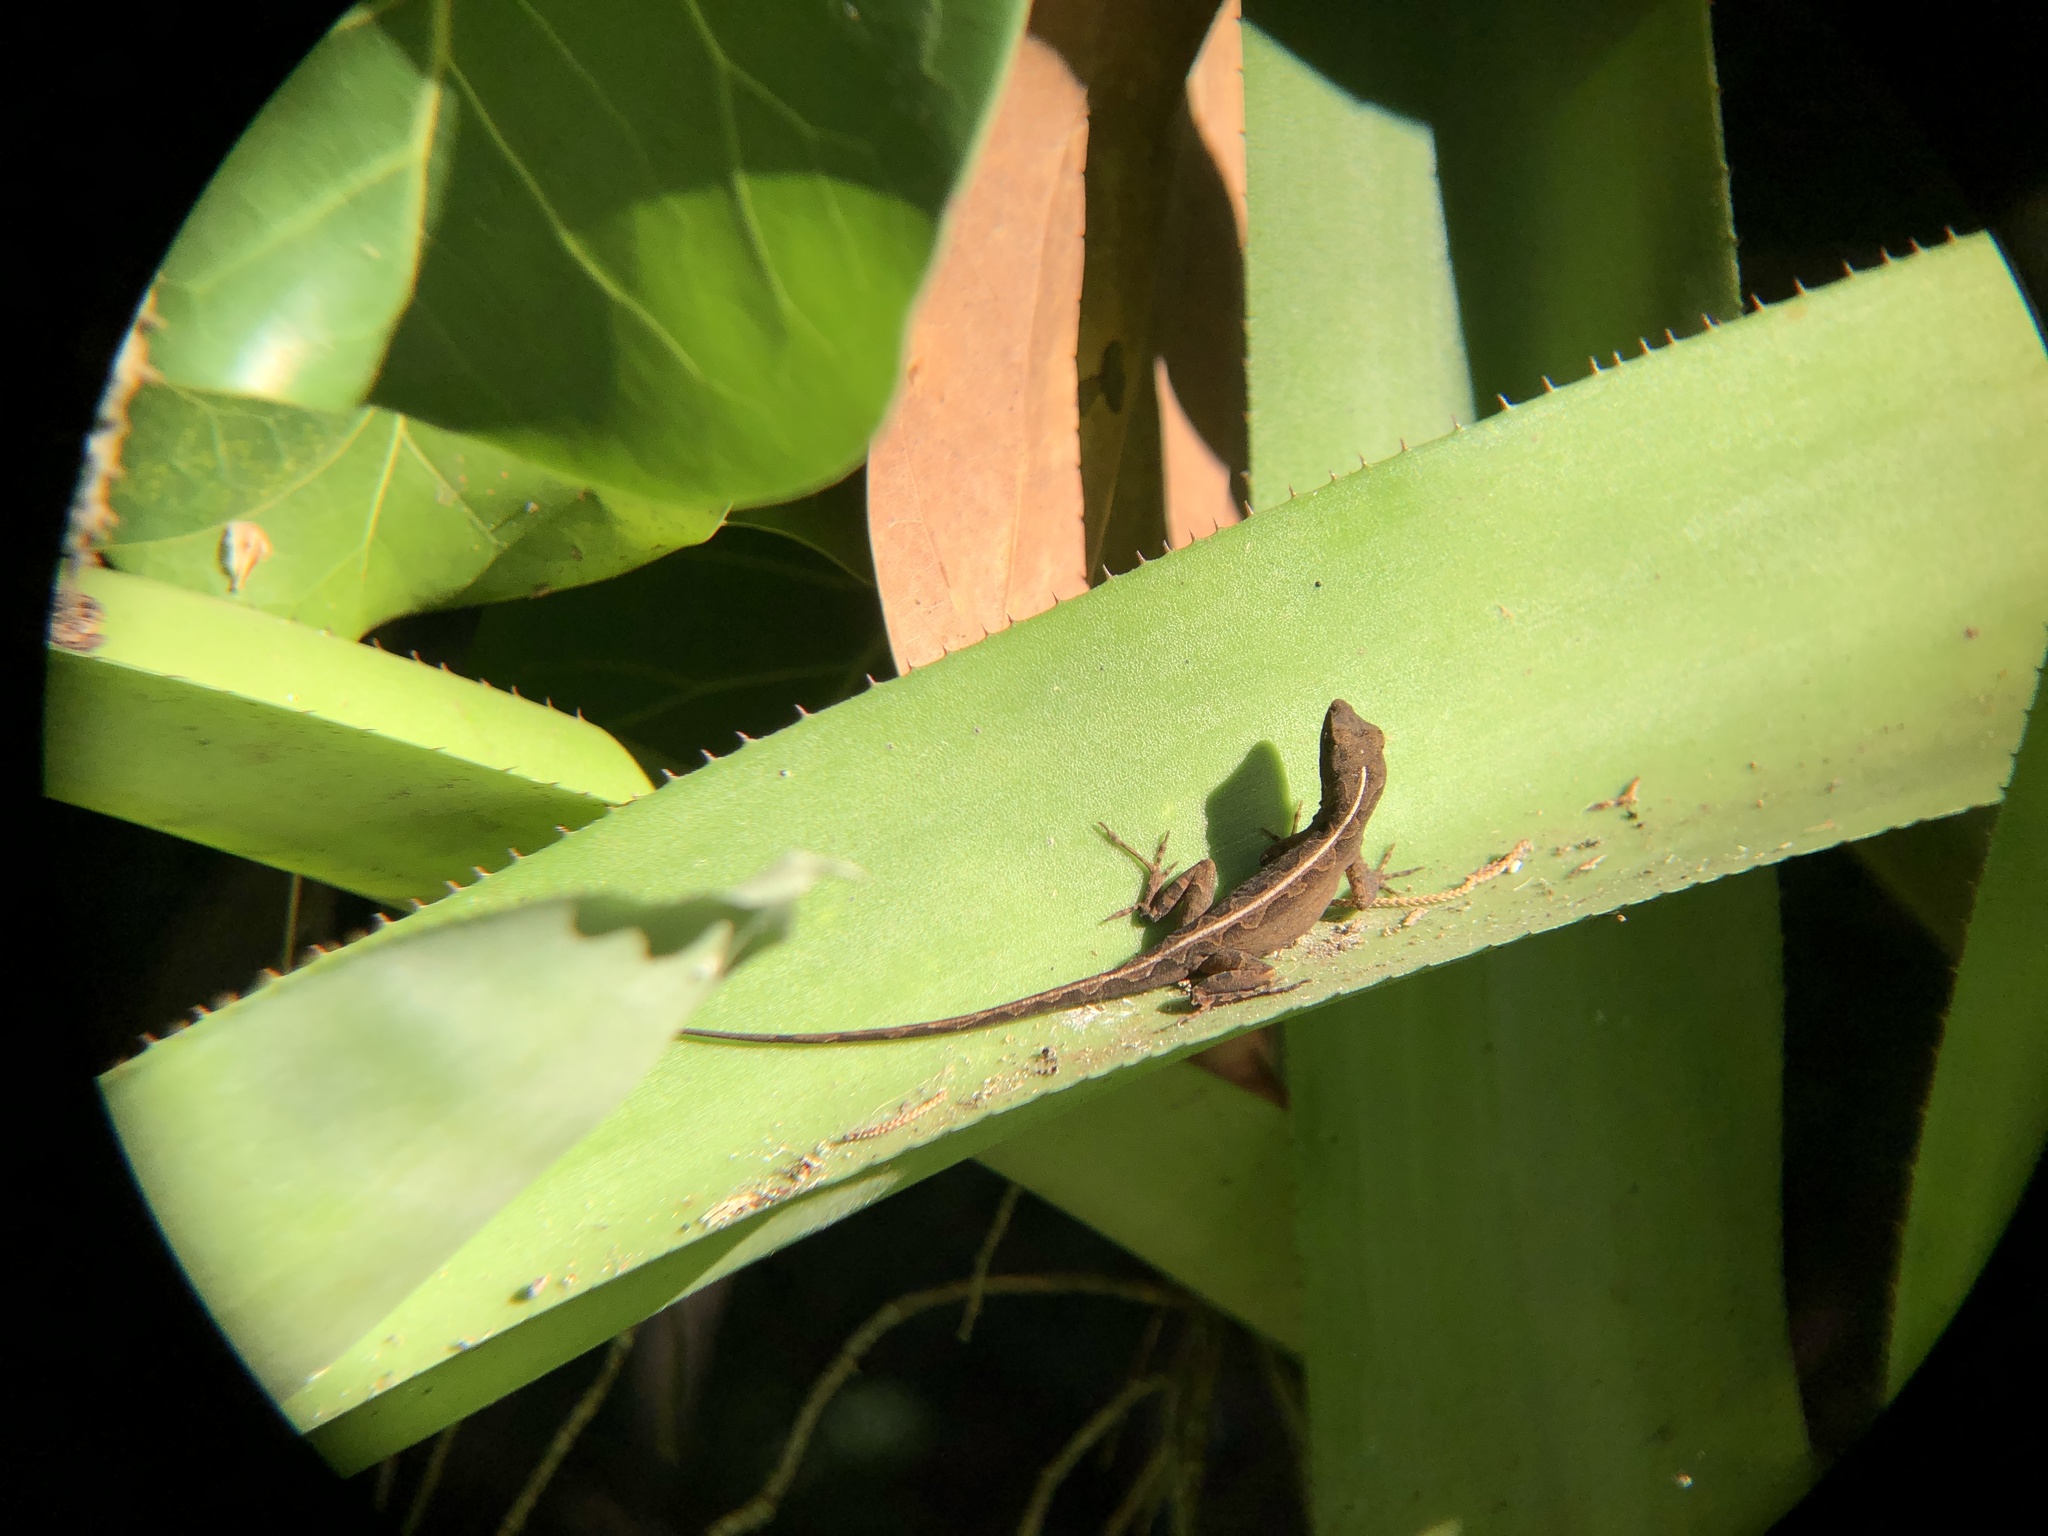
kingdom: Animalia
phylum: Chordata
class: Squamata
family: Dactyloidae
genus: Anolis
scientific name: Anolis sagrei
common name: Brown anole
